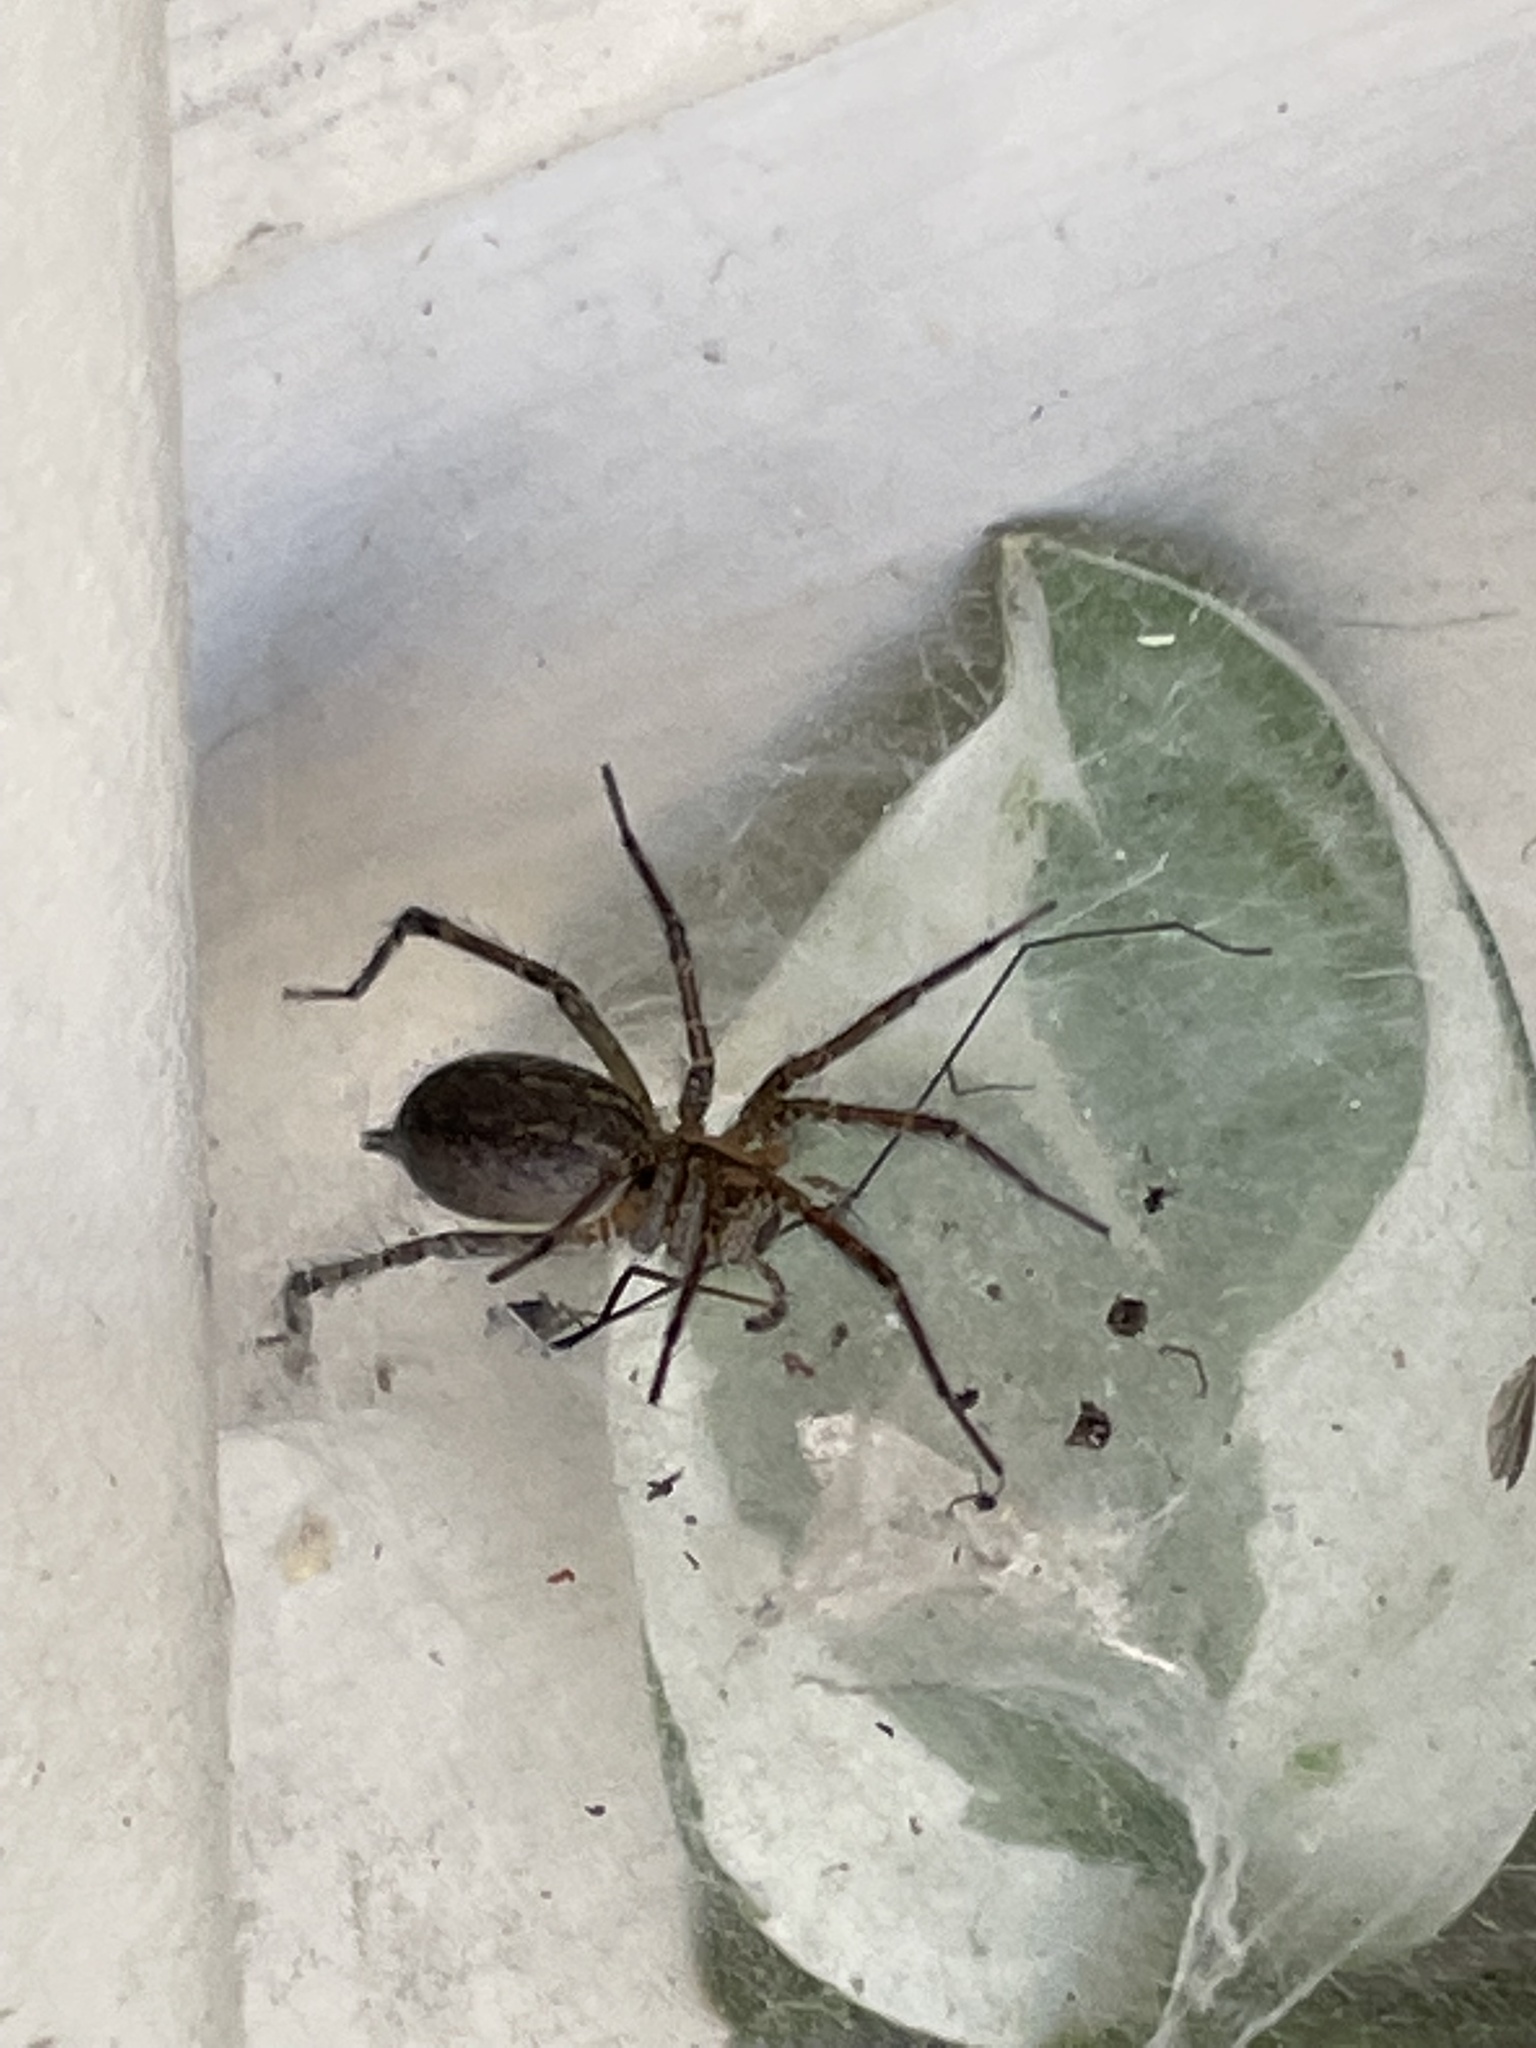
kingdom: Animalia
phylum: Arthropoda
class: Arachnida
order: Araneae
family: Agelenidae
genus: Agelenopsis
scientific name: Agelenopsis
